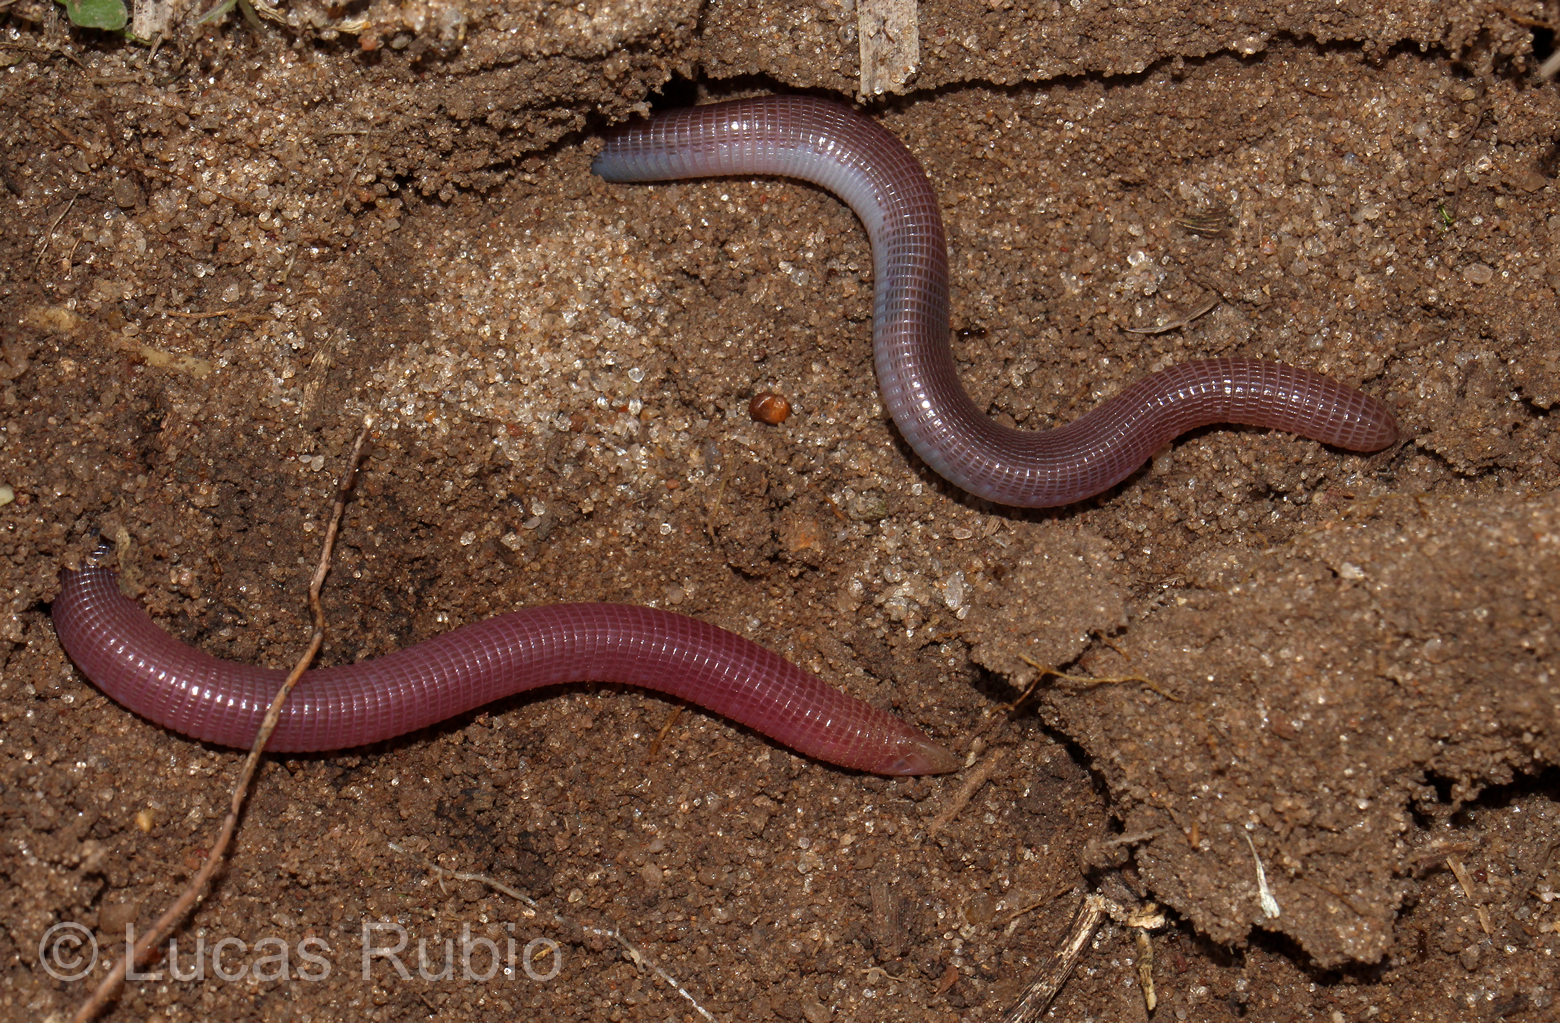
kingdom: Animalia
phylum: Chordata
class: Squamata
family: Amphisbaenidae
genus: Amphisbaena
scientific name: Amphisbaena kingii
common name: King's worm lizard
